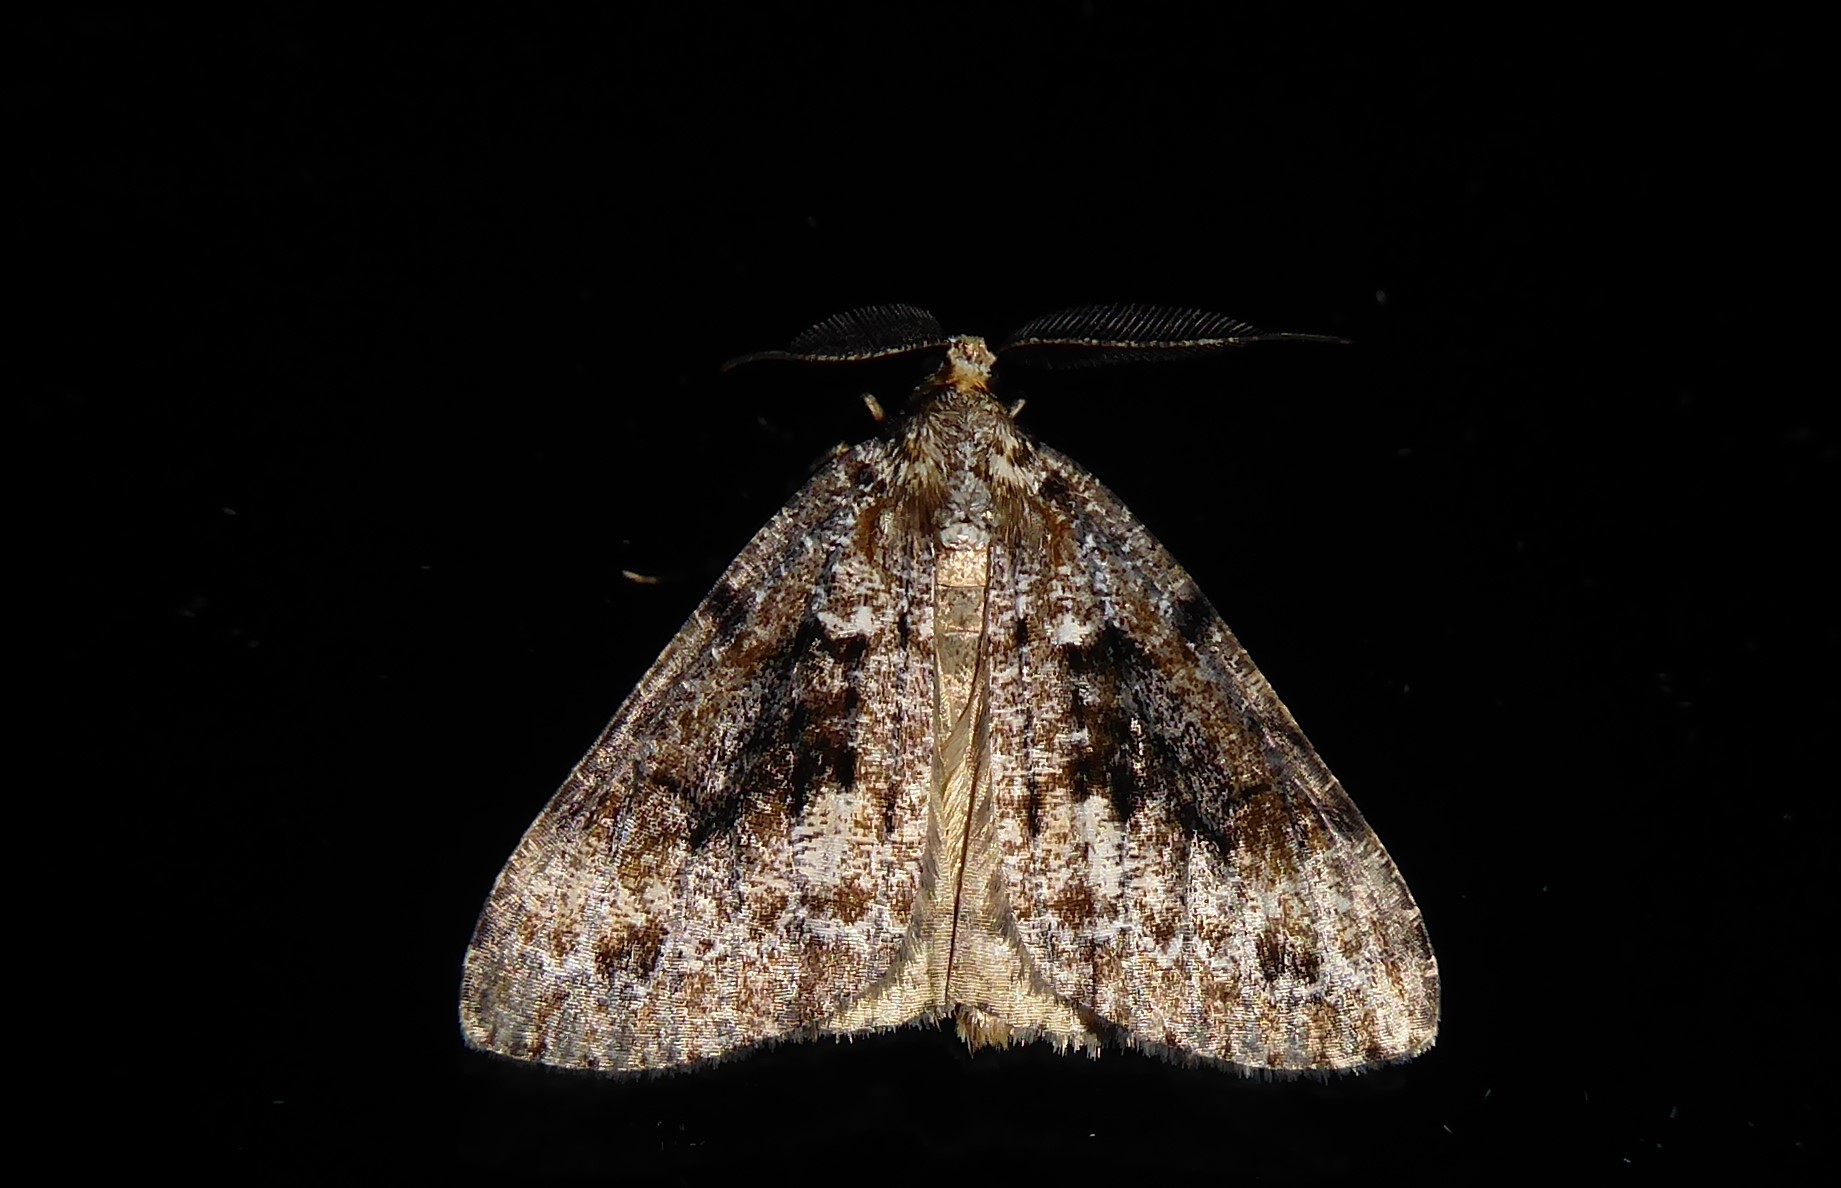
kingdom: Animalia
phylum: Arthropoda
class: Insecta
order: Lepidoptera
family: Geometridae
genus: Pseudocoremia
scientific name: Pseudocoremia productata
